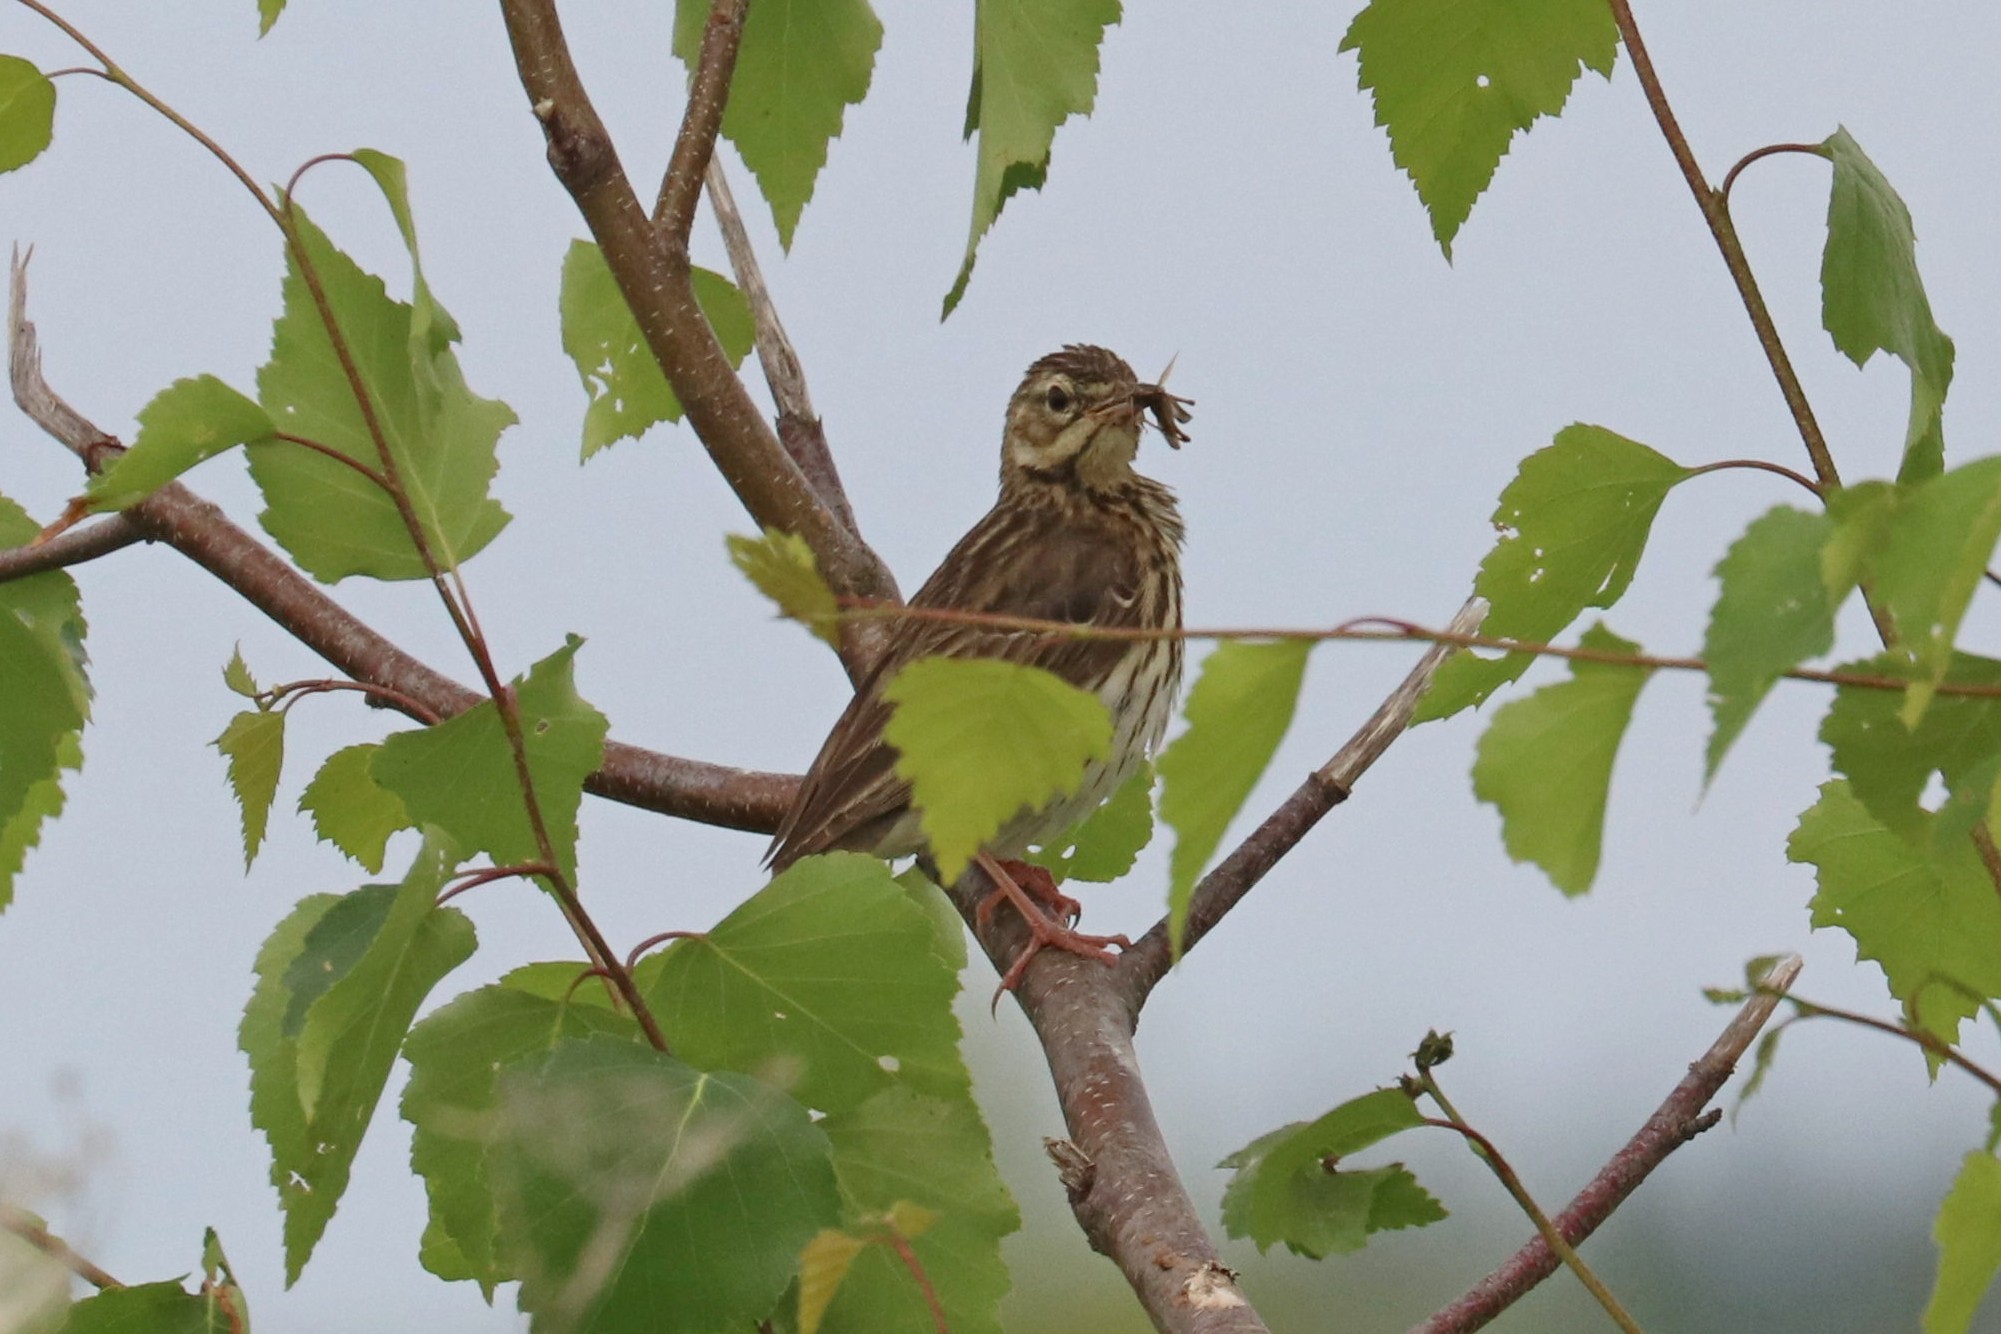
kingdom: Animalia
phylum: Chordata
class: Aves
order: Passeriformes
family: Motacillidae
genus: Anthus
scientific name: Anthus trivialis
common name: Tree pipit
